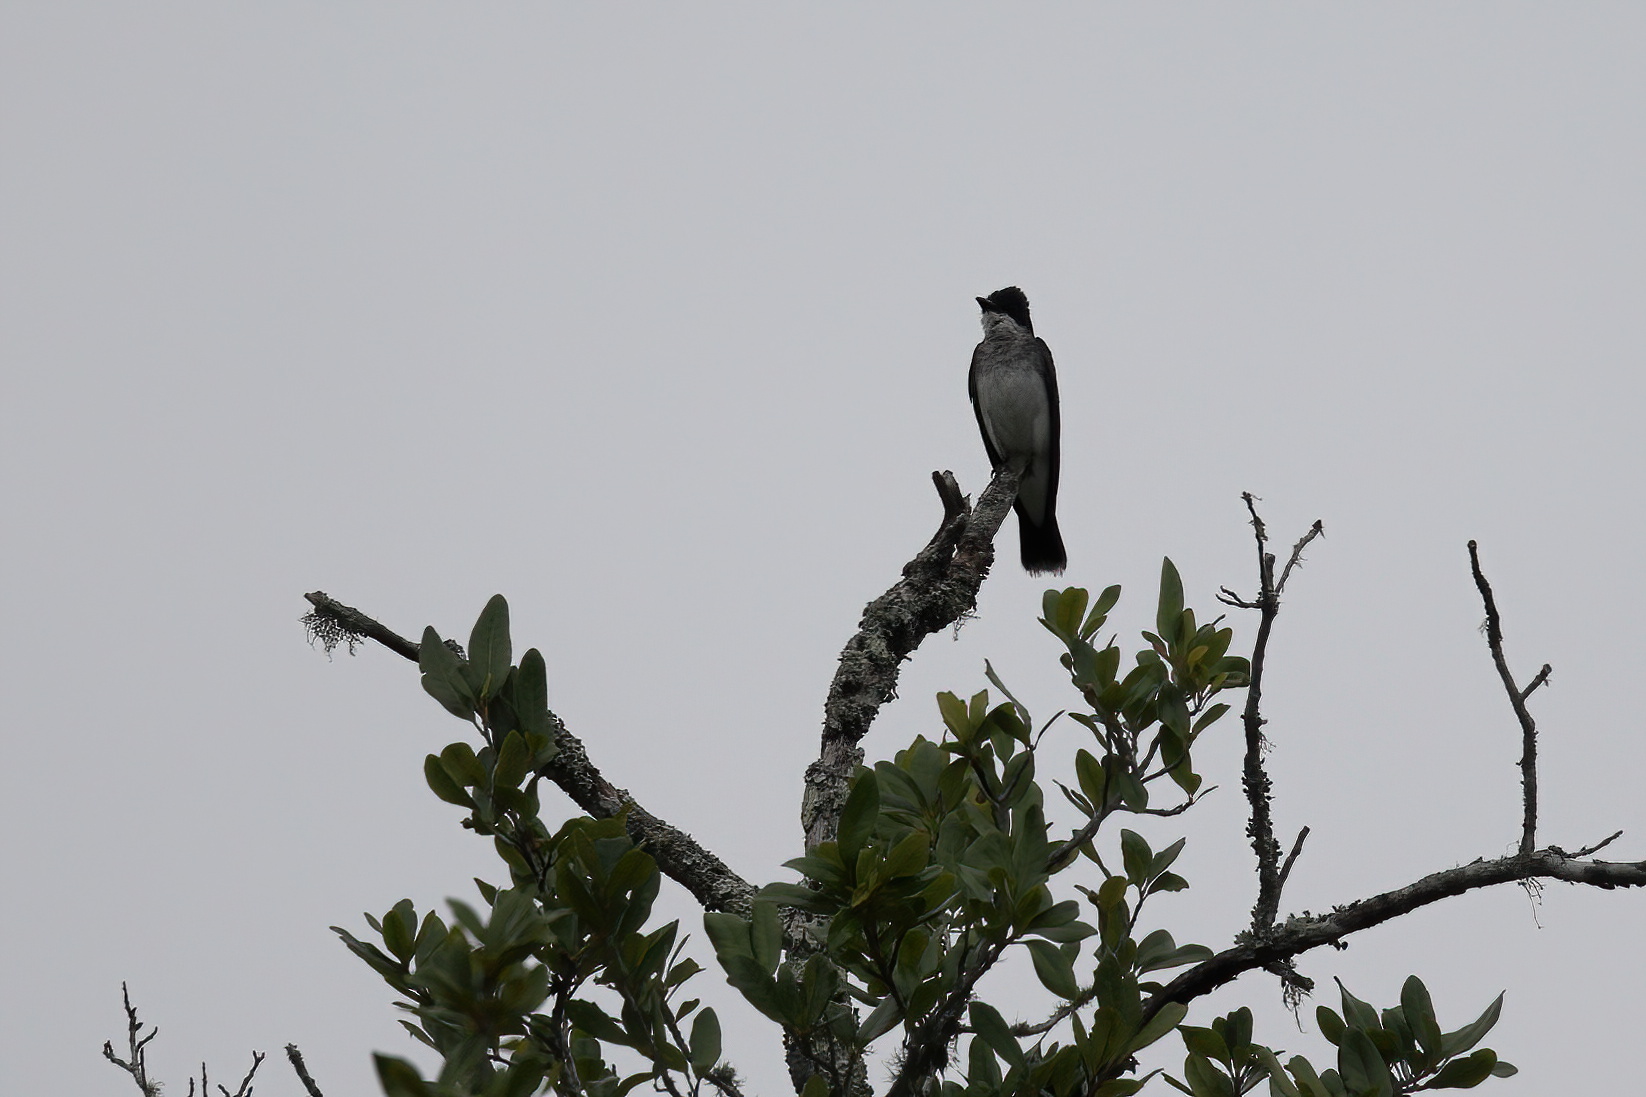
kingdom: Animalia
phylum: Chordata
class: Aves
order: Passeriformes
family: Tyrannidae
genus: Tyrannus
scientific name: Tyrannus tyrannus
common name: Eastern kingbird
